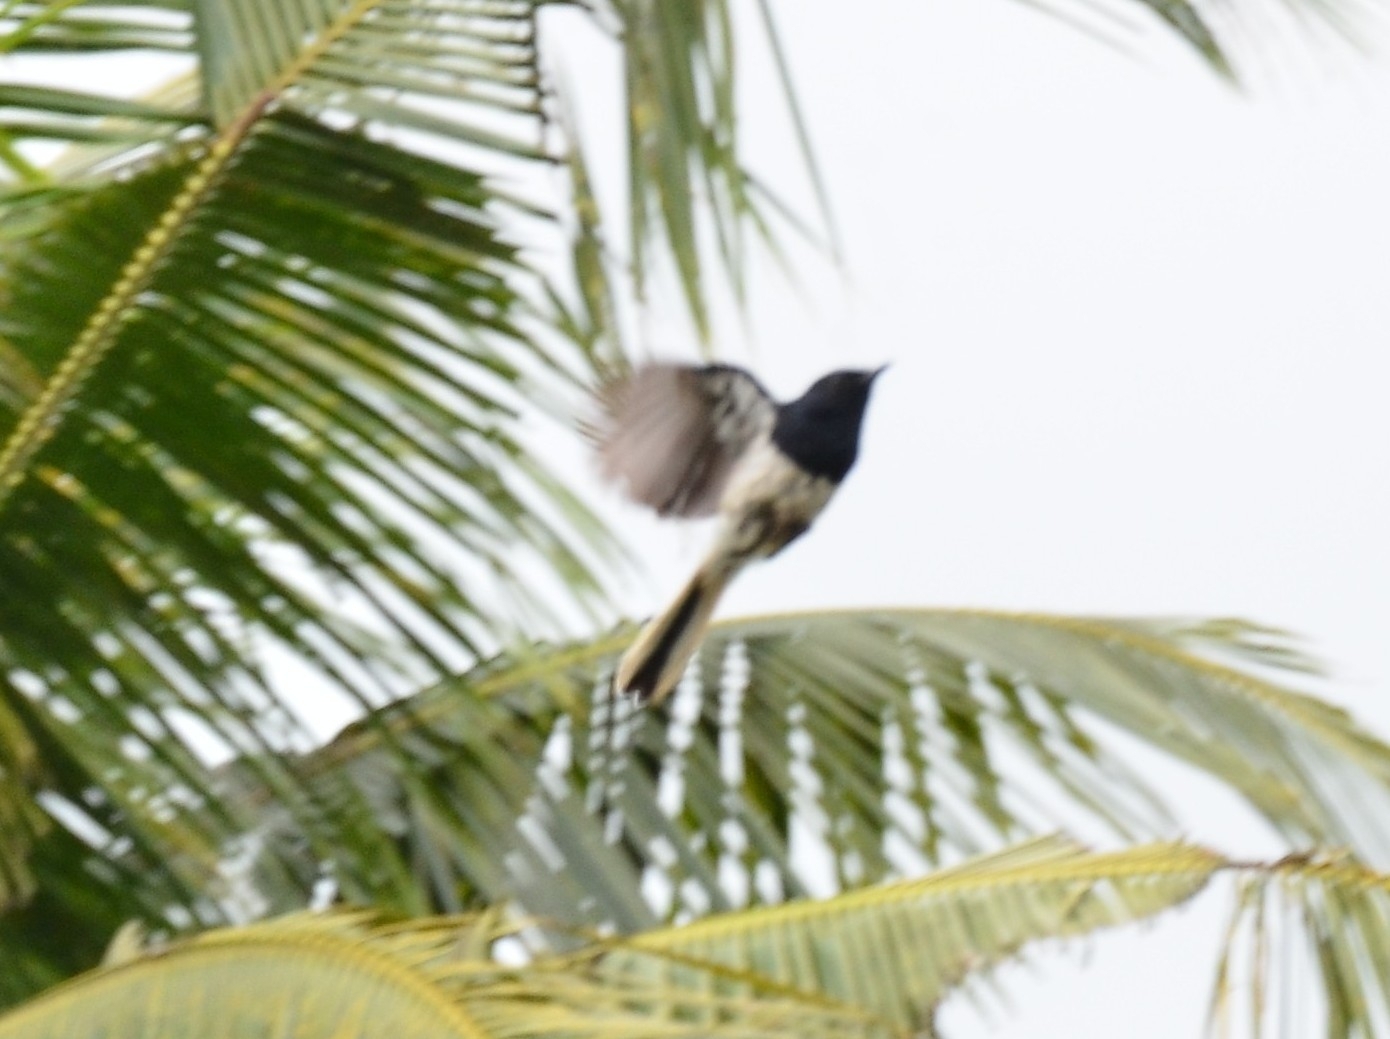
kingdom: Animalia
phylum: Chordata
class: Aves
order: Passeriformes
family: Muscicapidae
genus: Copsychus
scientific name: Copsychus saularis
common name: Oriental magpie-robin
